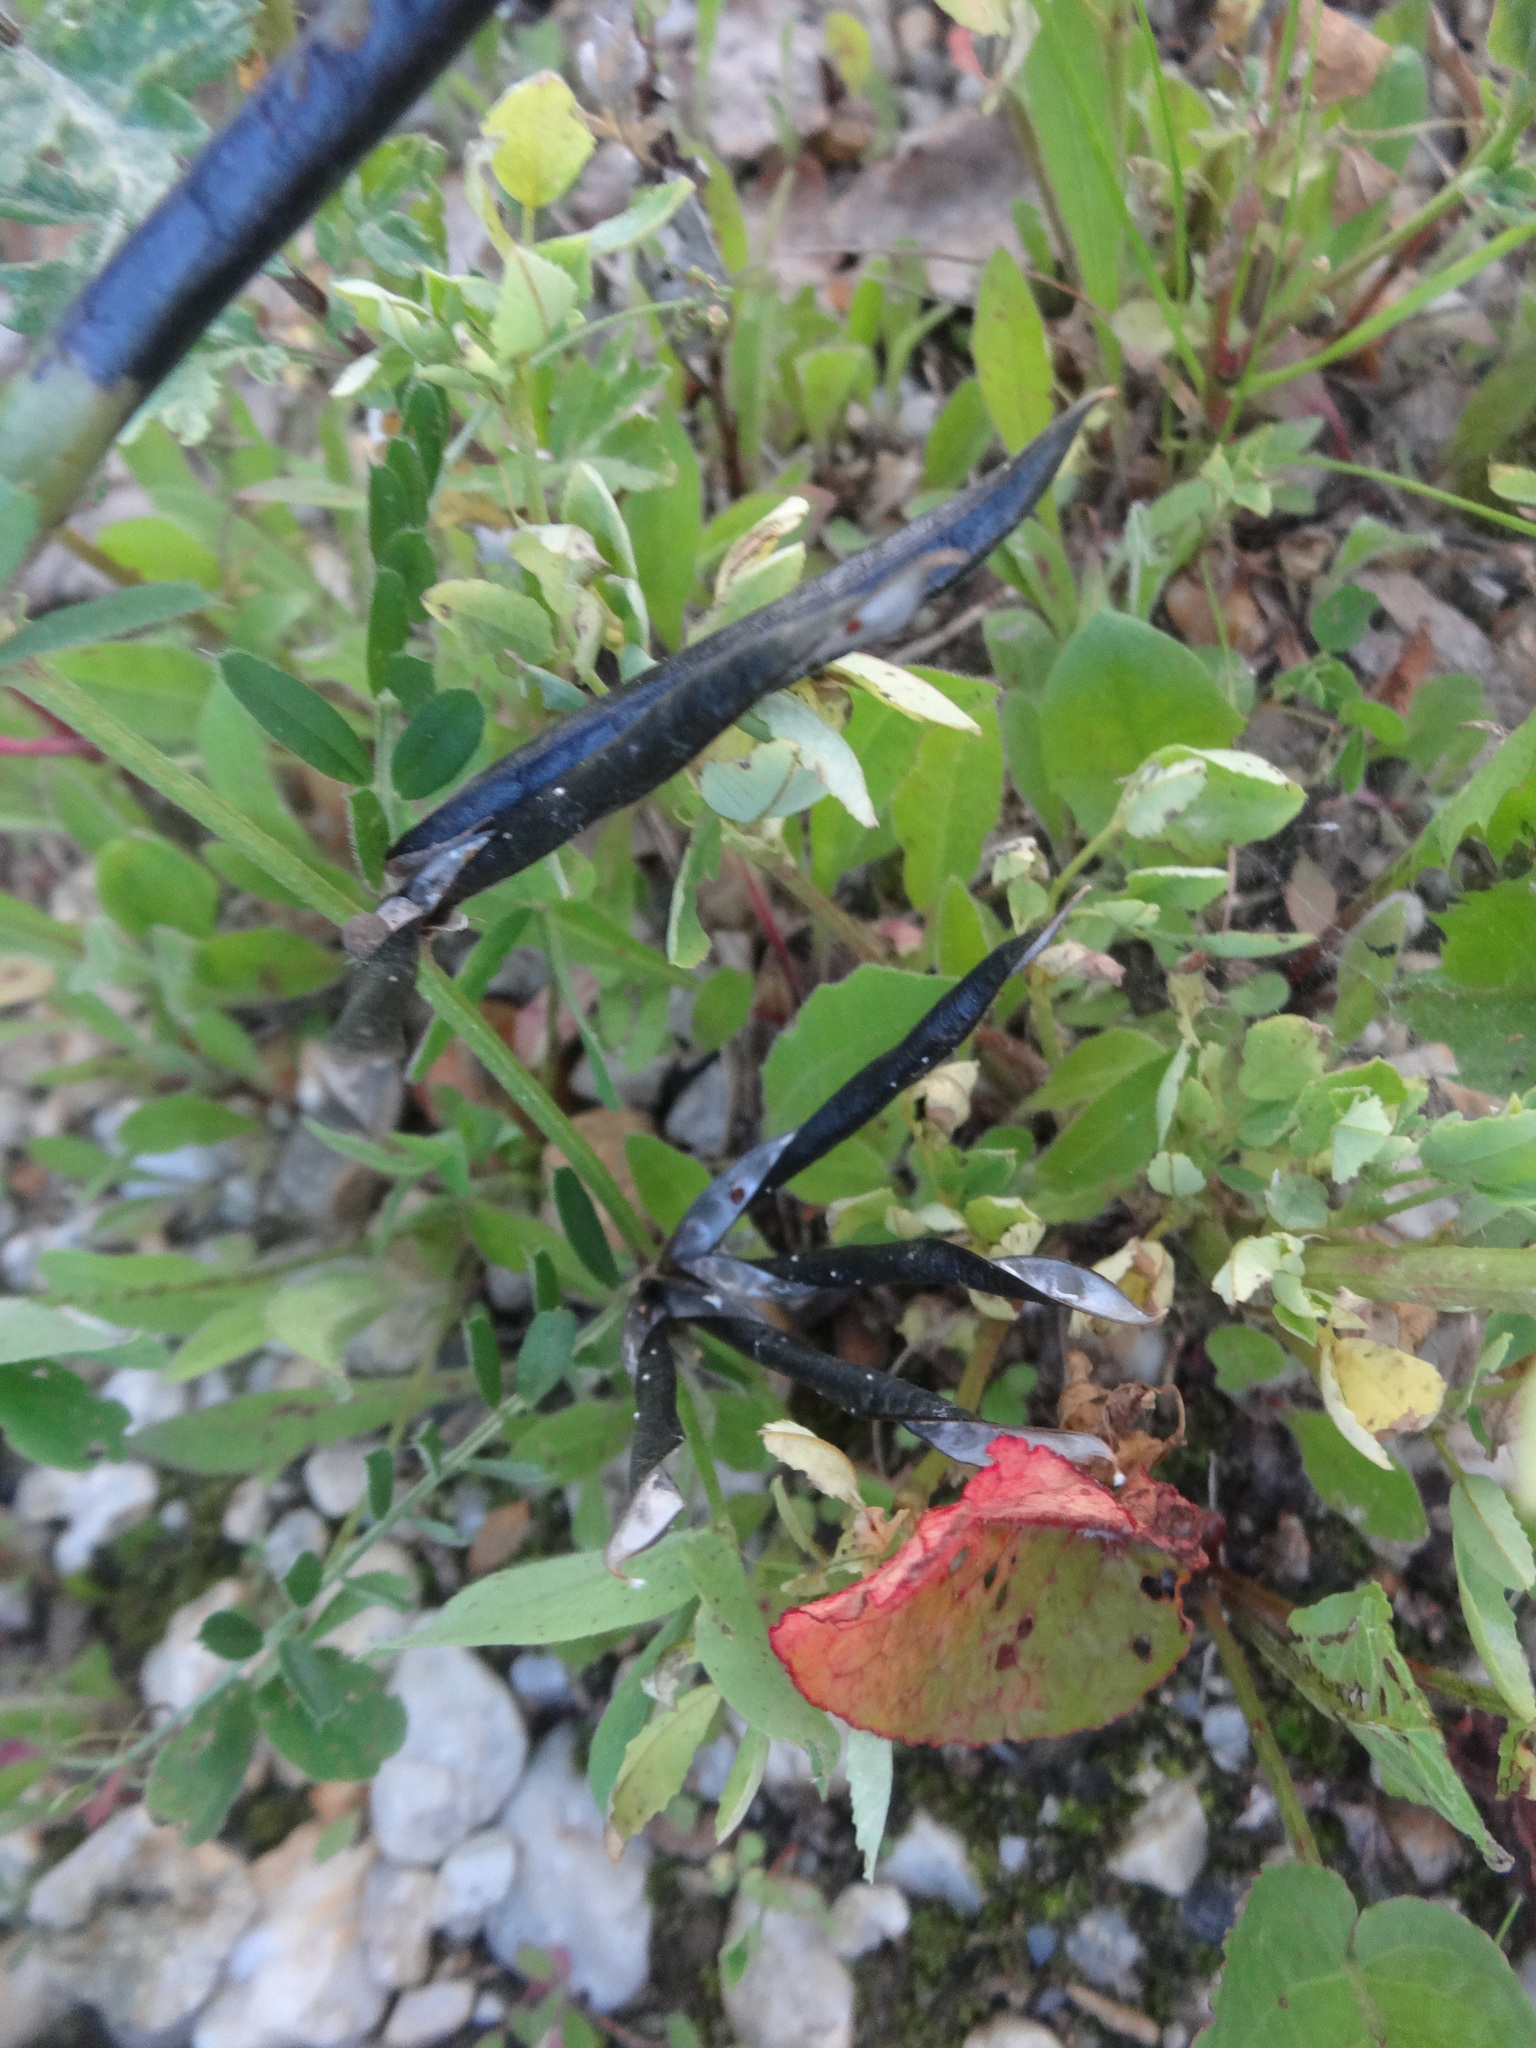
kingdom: Plantae
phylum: Tracheophyta
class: Magnoliopsida
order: Fabales
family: Fabaceae
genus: Vicia
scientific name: Vicia sativa
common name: Garden vetch
